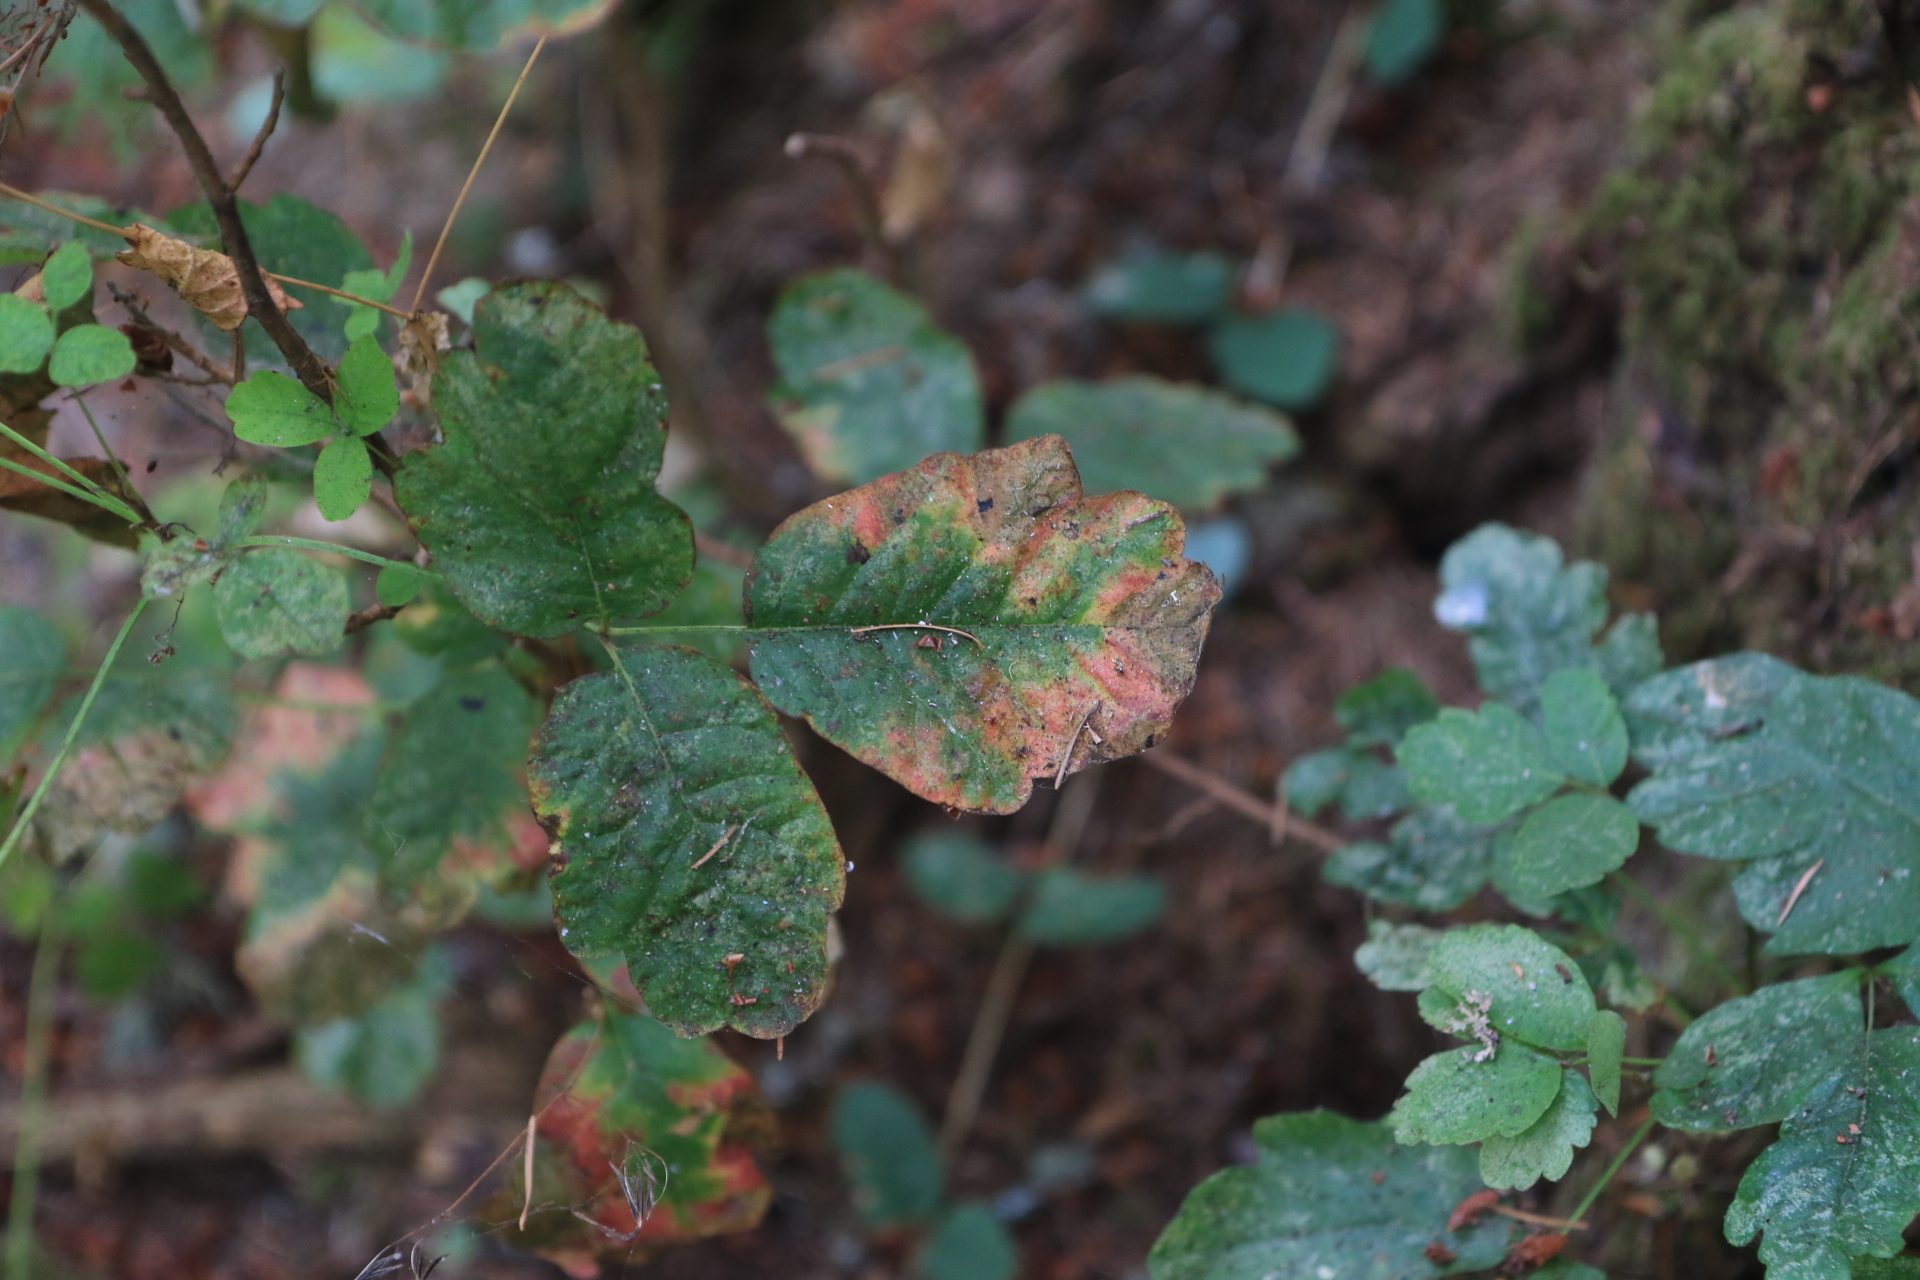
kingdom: Plantae
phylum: Tracheophyta
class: Magnoliopsida
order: Sapindales
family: Anacardiaceae
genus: Toxicodendron
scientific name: Toxicodendron diversilobum
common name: Pacific poison-oak
